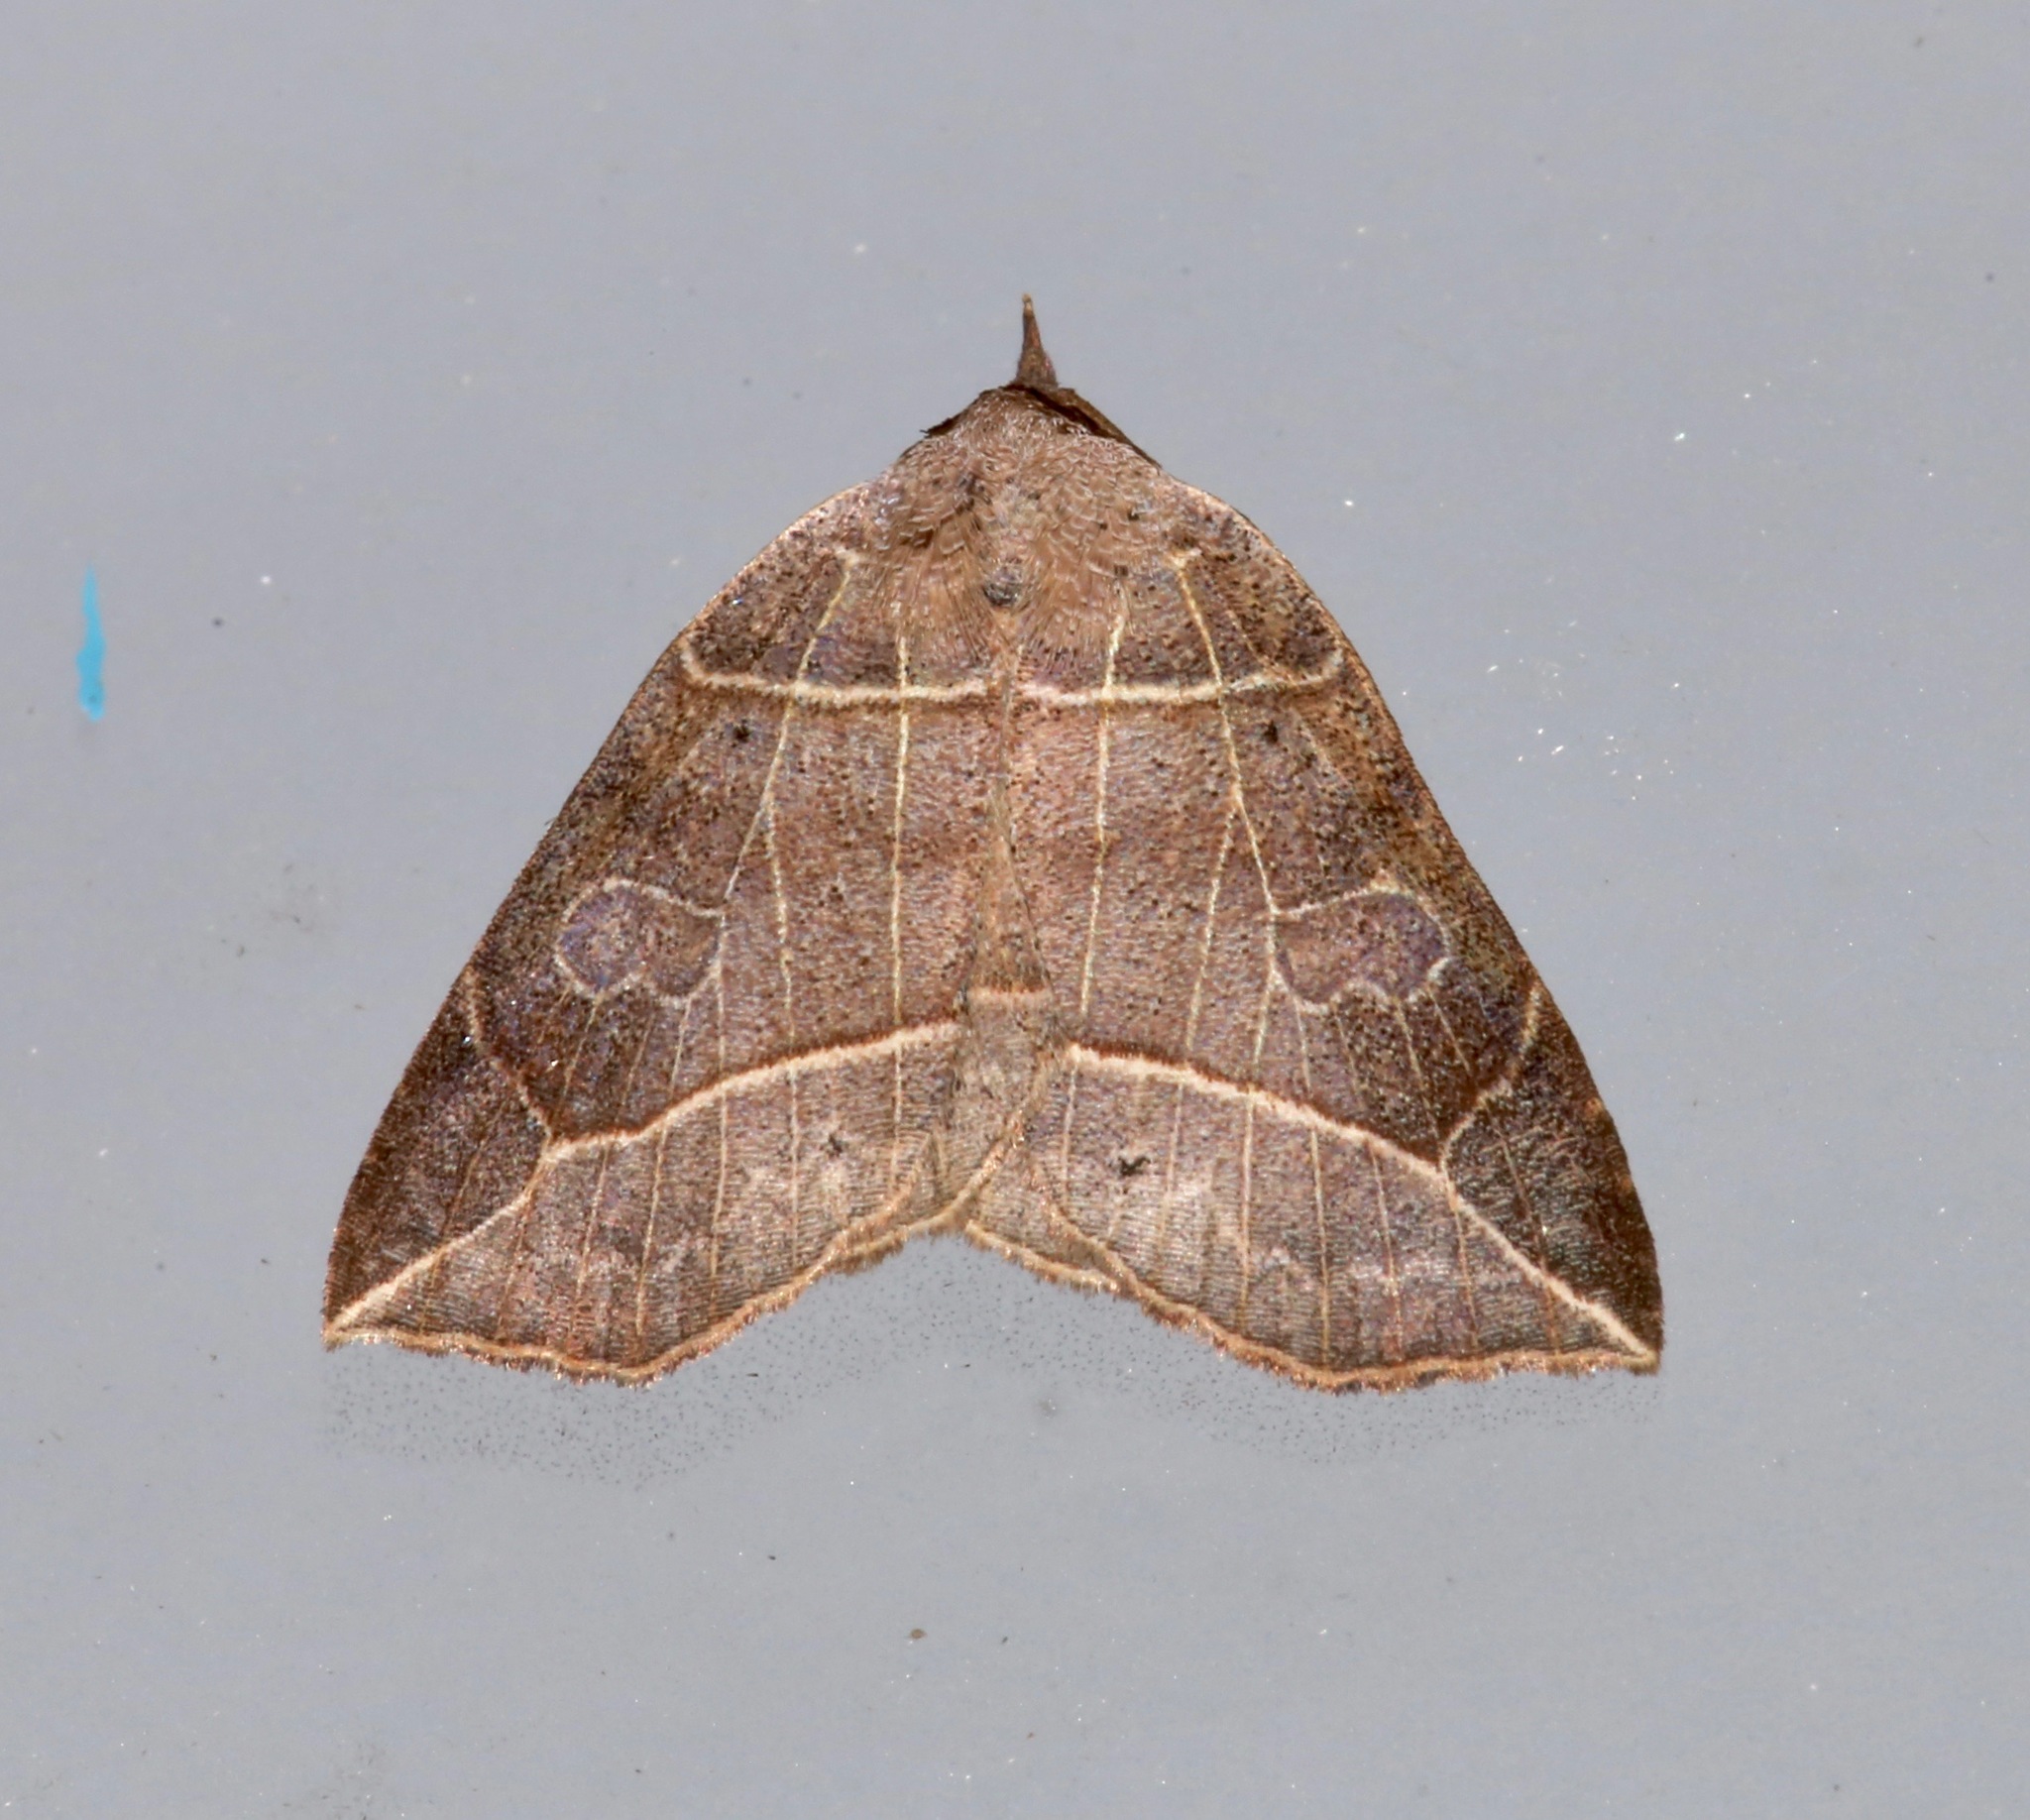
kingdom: Animalia
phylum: Arthropoda
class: Insecta
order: Lepidoptera
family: Erebidae
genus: Isogona
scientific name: Isogona tenuis
